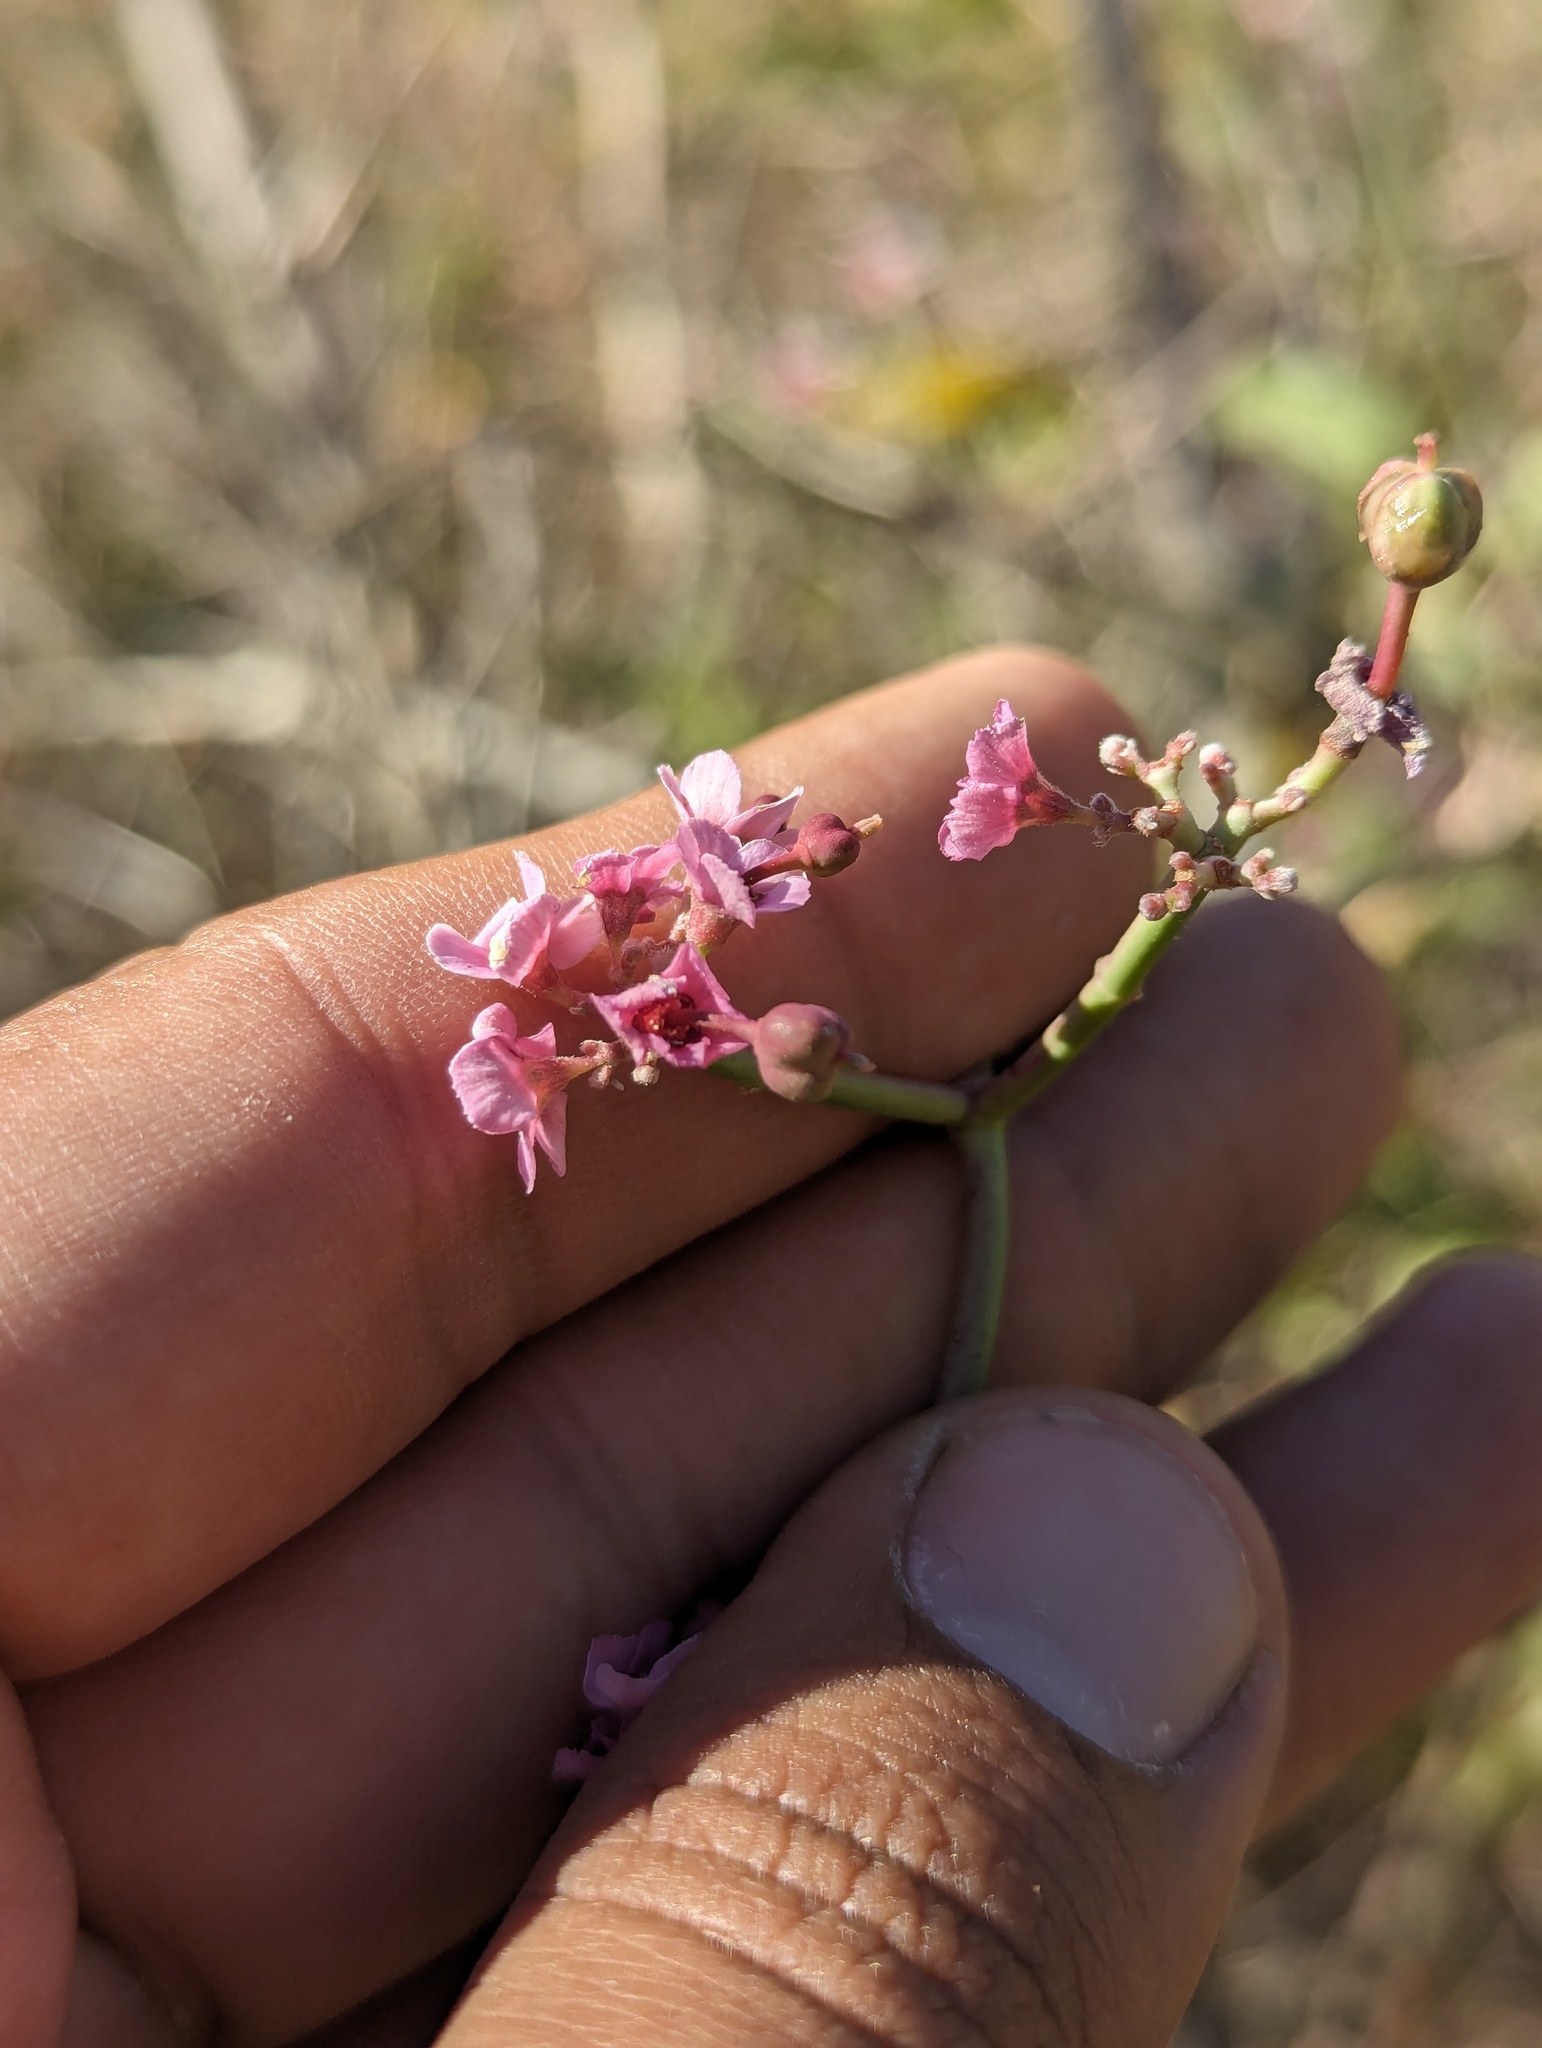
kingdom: Plantae
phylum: Tracheophyta
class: Magnoliopsida
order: Malpighiales
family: Euphorbiaceae
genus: Euphorbia
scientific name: Euphorbia xanti
